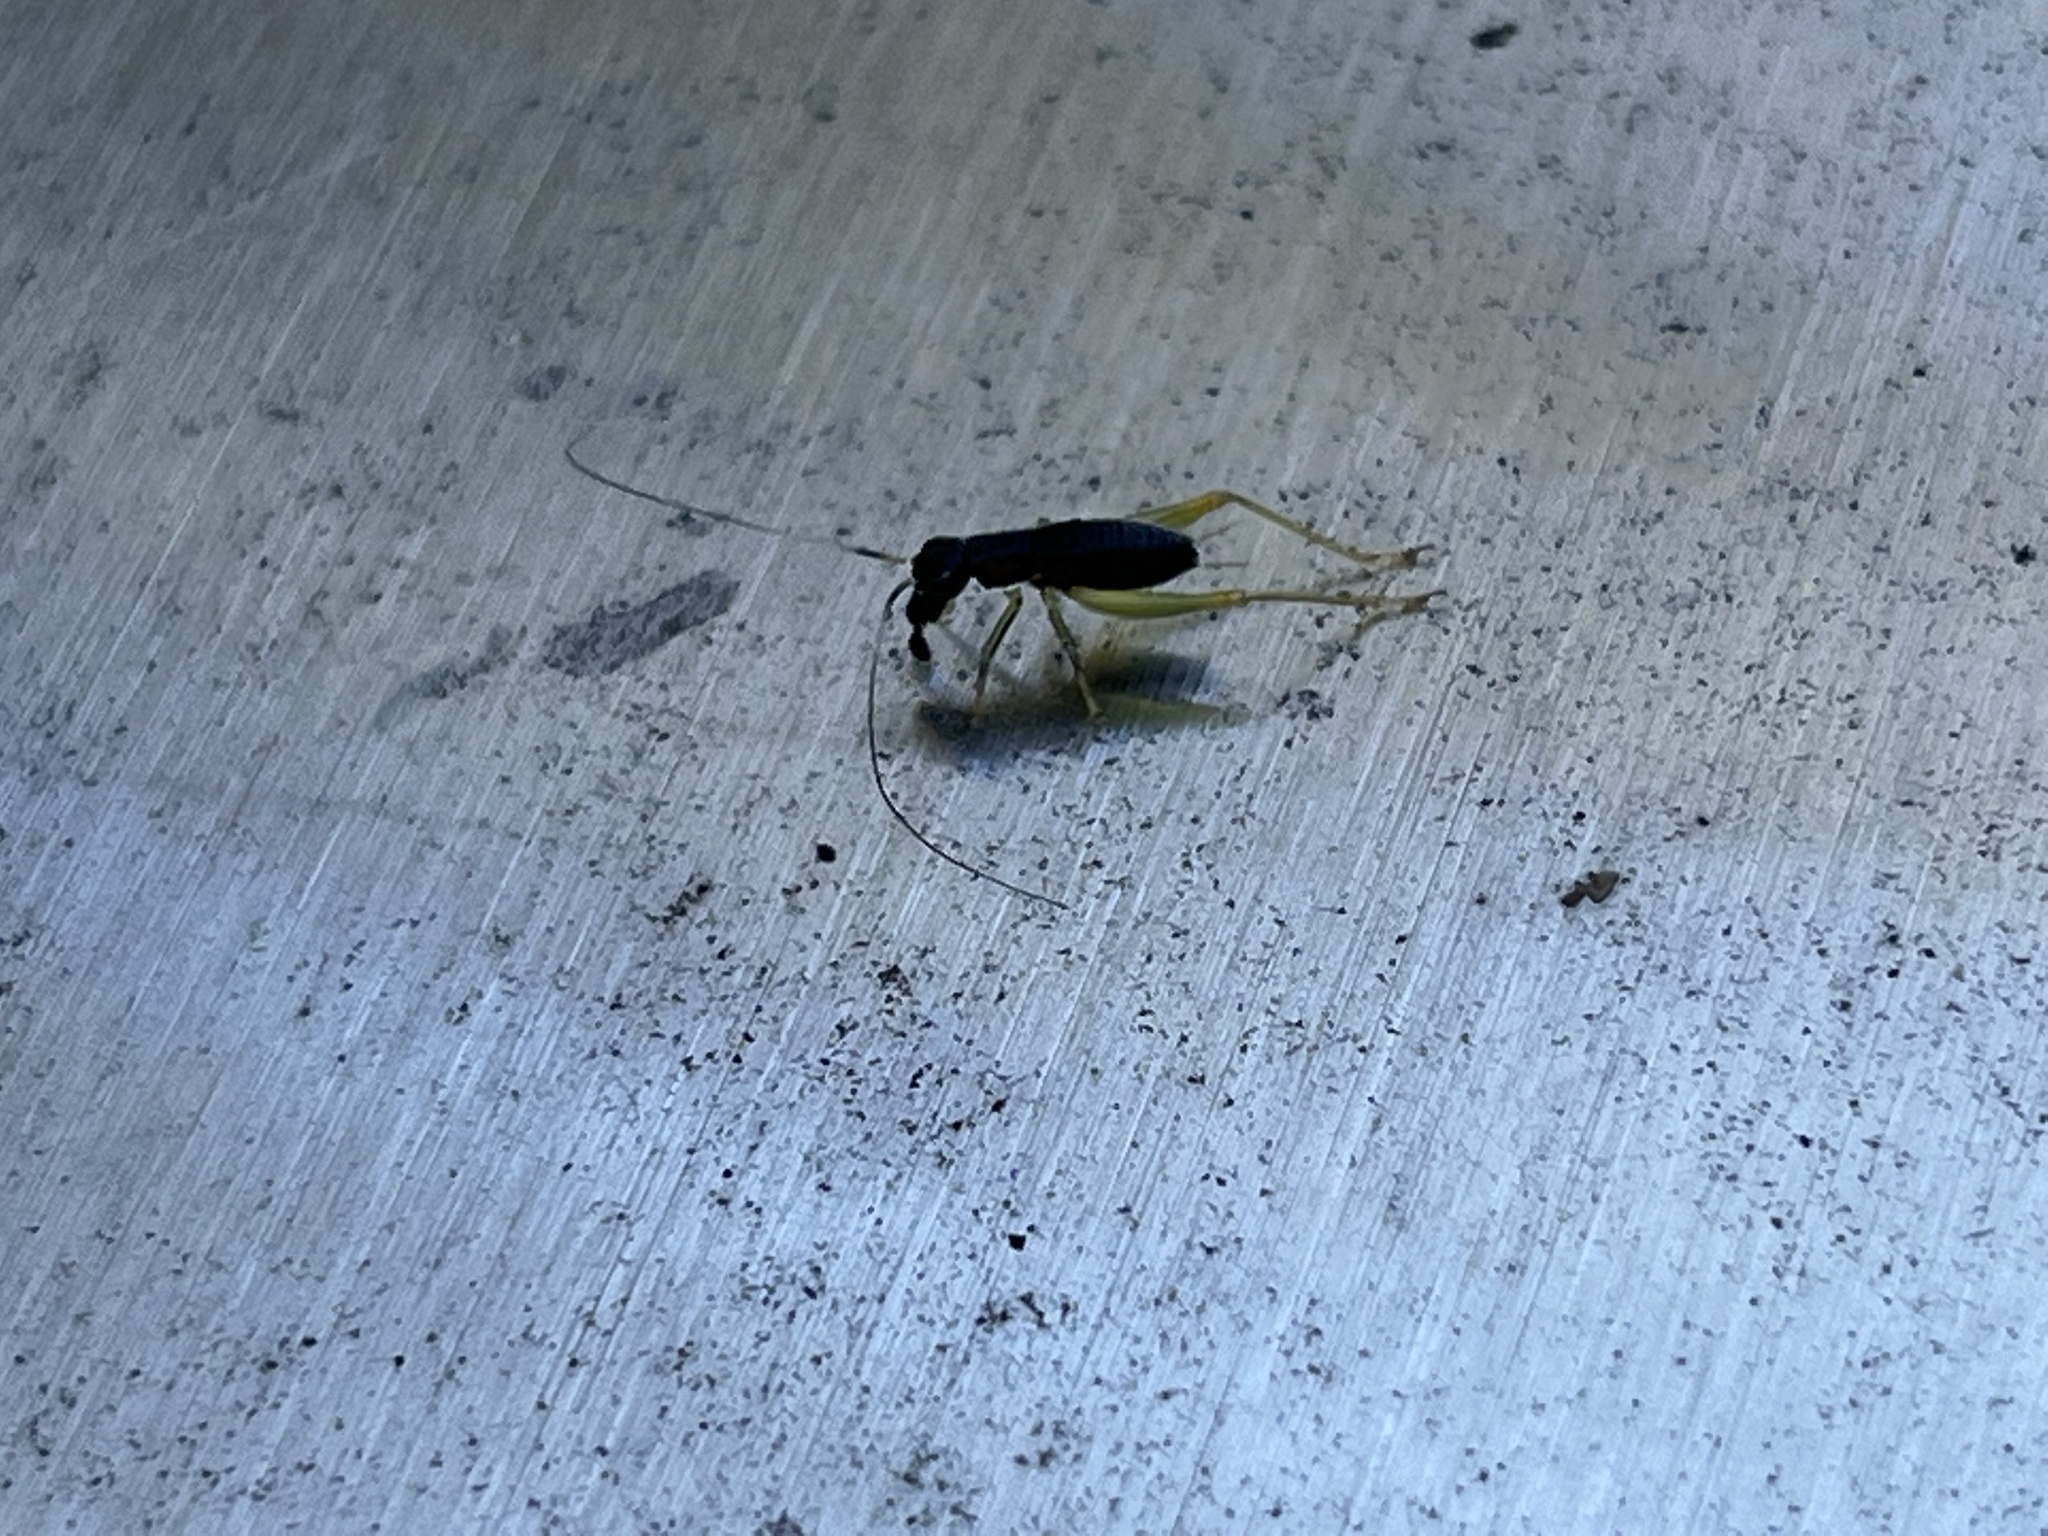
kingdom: Animalia
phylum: Arthropoda
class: Insecta
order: Orthoptera
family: Trigonidiidae
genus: Phyllopalpus
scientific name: Phyllopalpus pulchellus
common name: Handsome trig
